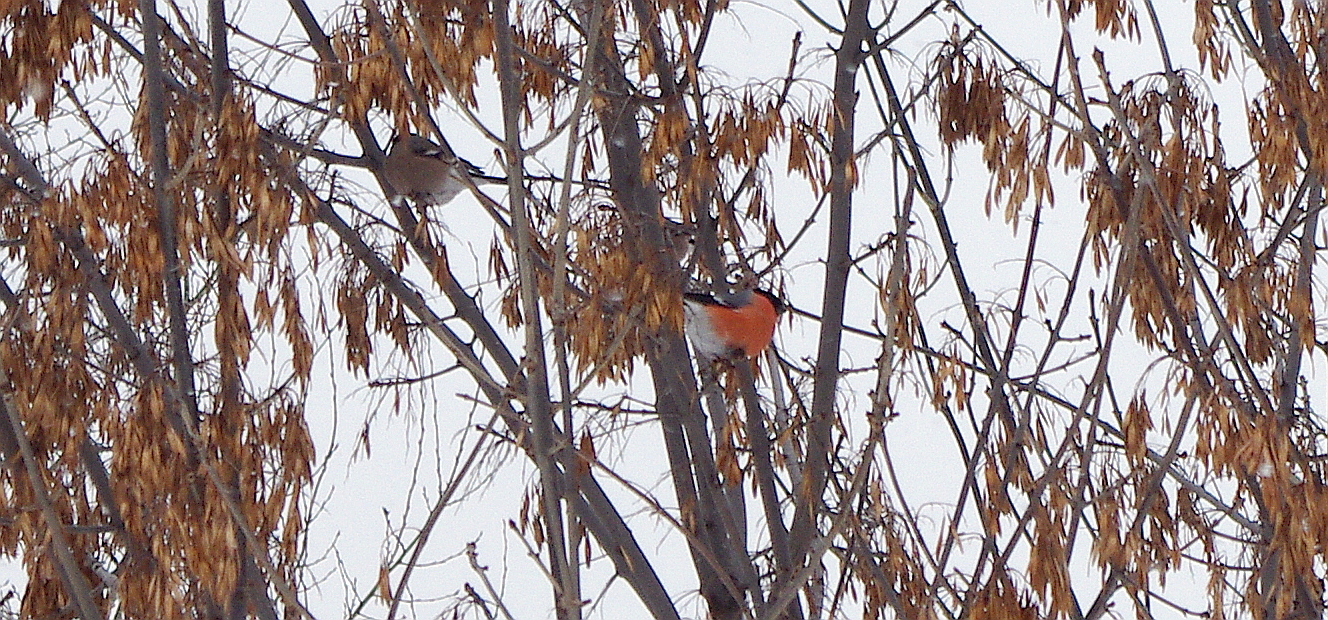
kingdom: Animalia
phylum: Chordata
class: Aves
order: Passeriformes
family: Fringillidae
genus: Pyrrhula
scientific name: Pyrrhula pyrrhula
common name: Eurasian bullfinch
